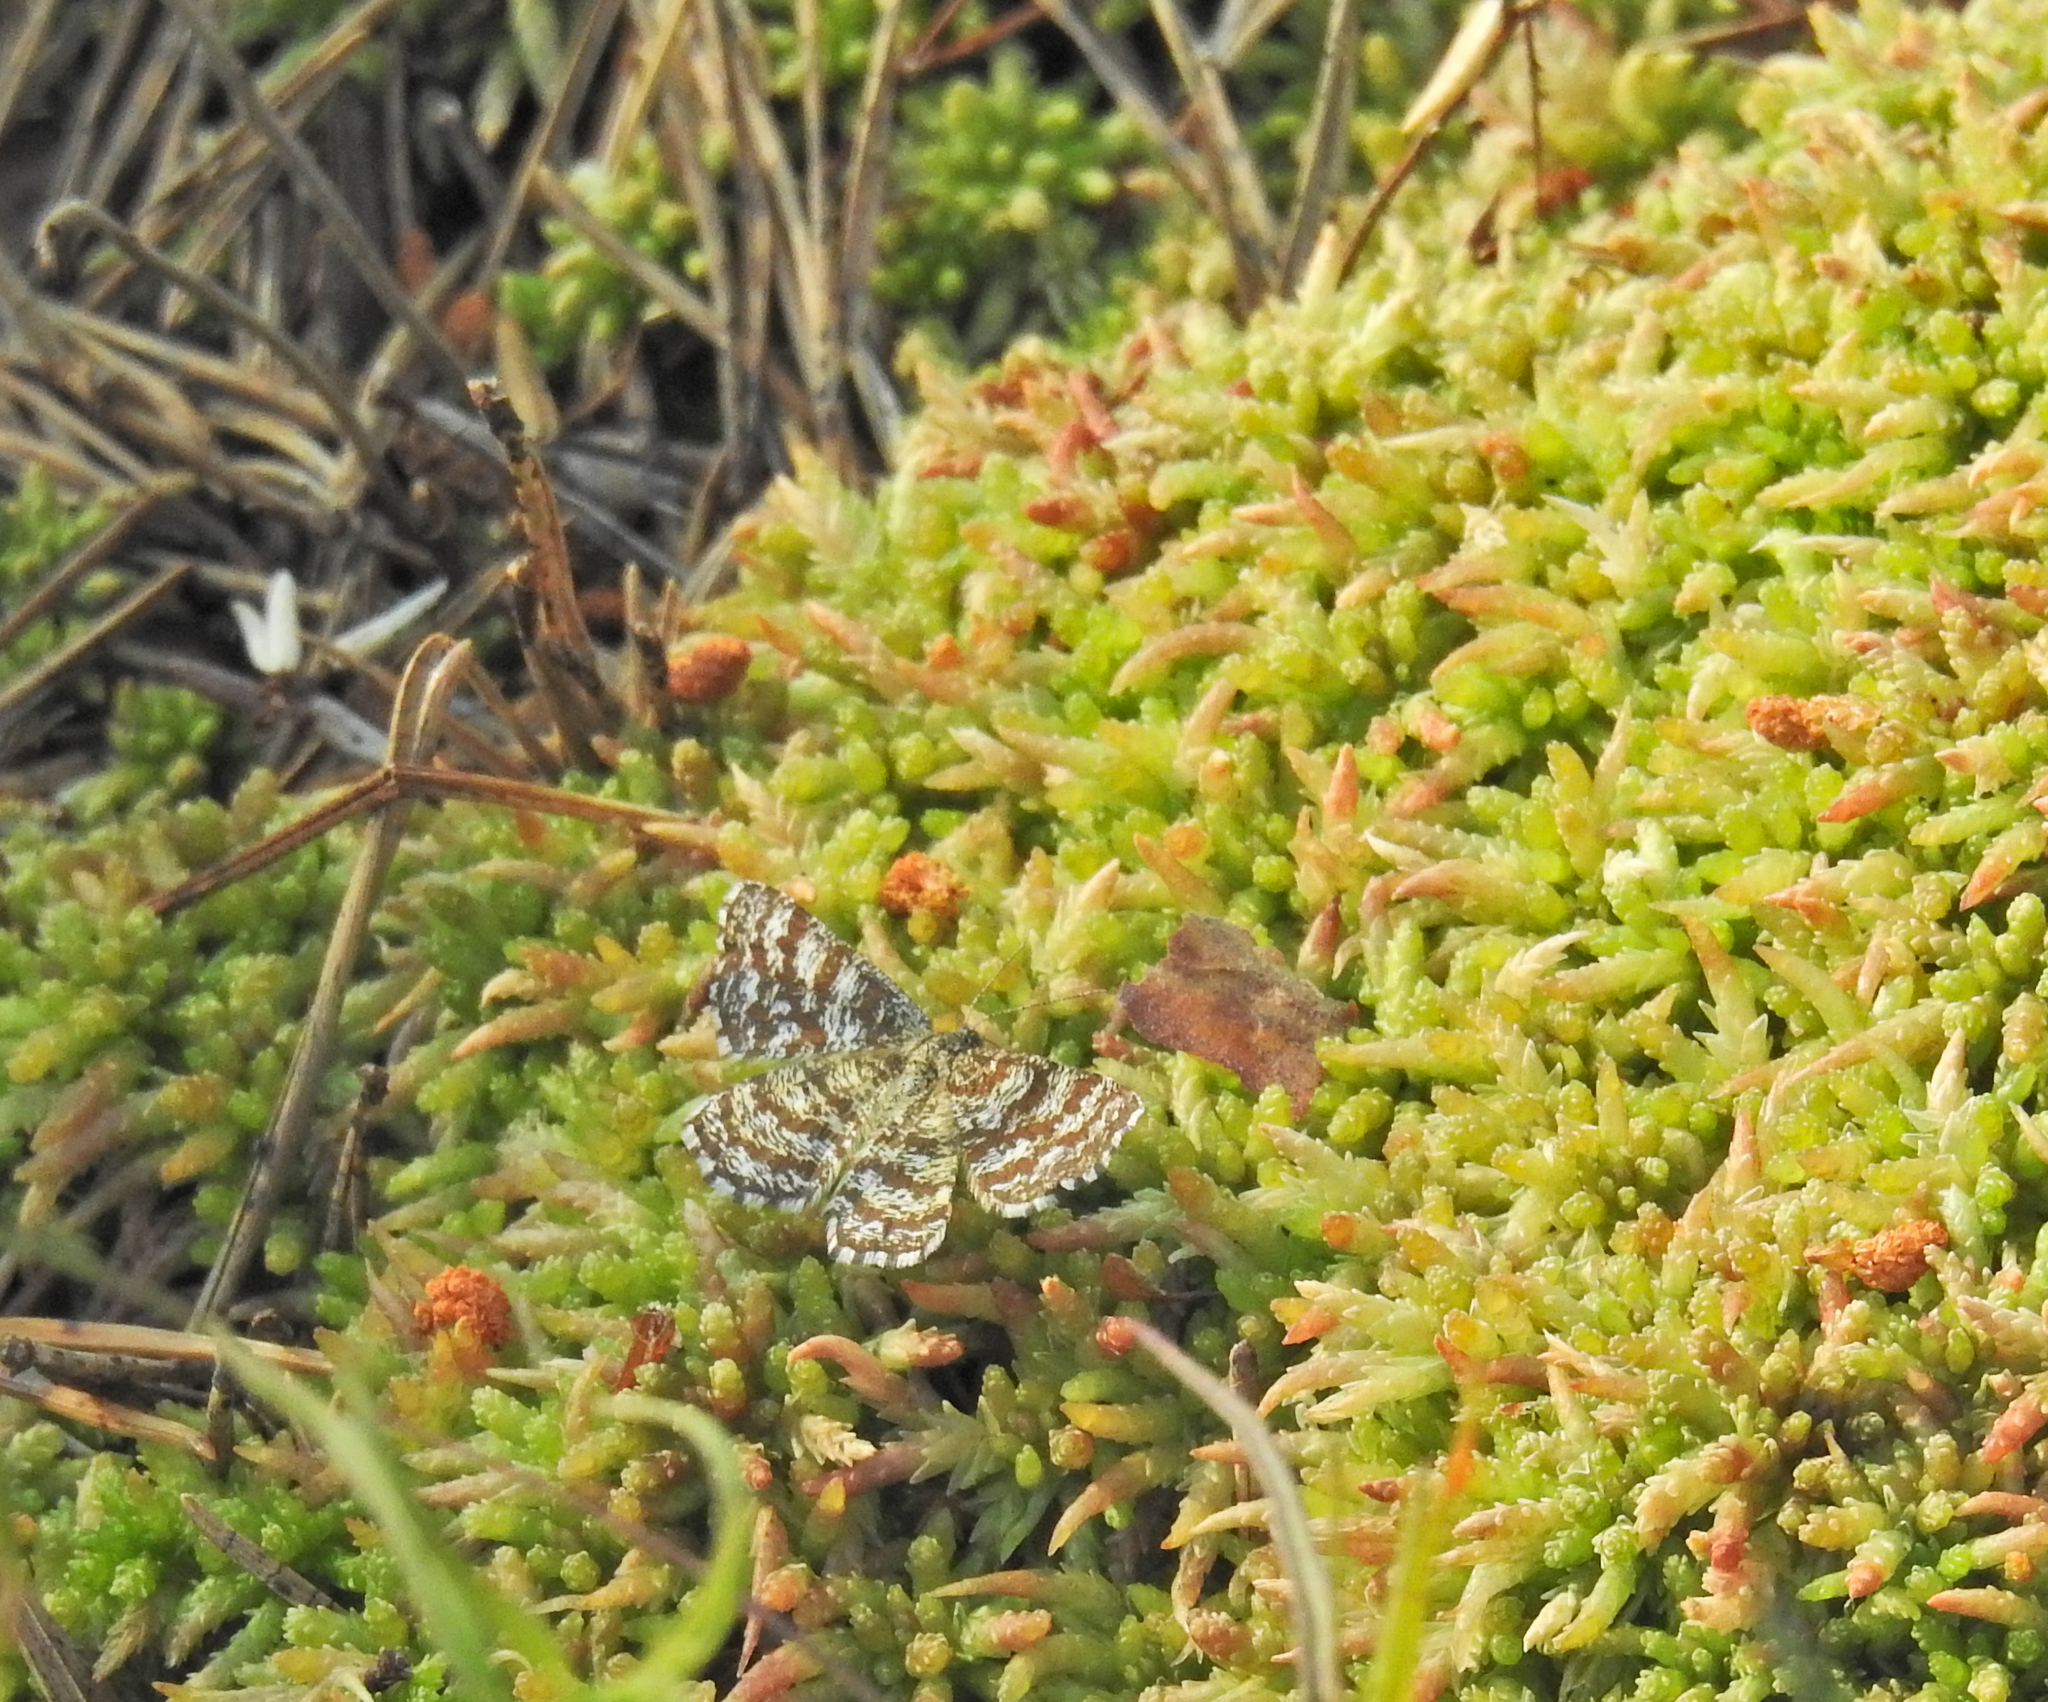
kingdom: Animalia
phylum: Arthropoda
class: Insecta
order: Lepidoptera
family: Geometridae
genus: Ematurga
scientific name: Ematurga atomaria
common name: Common heath
